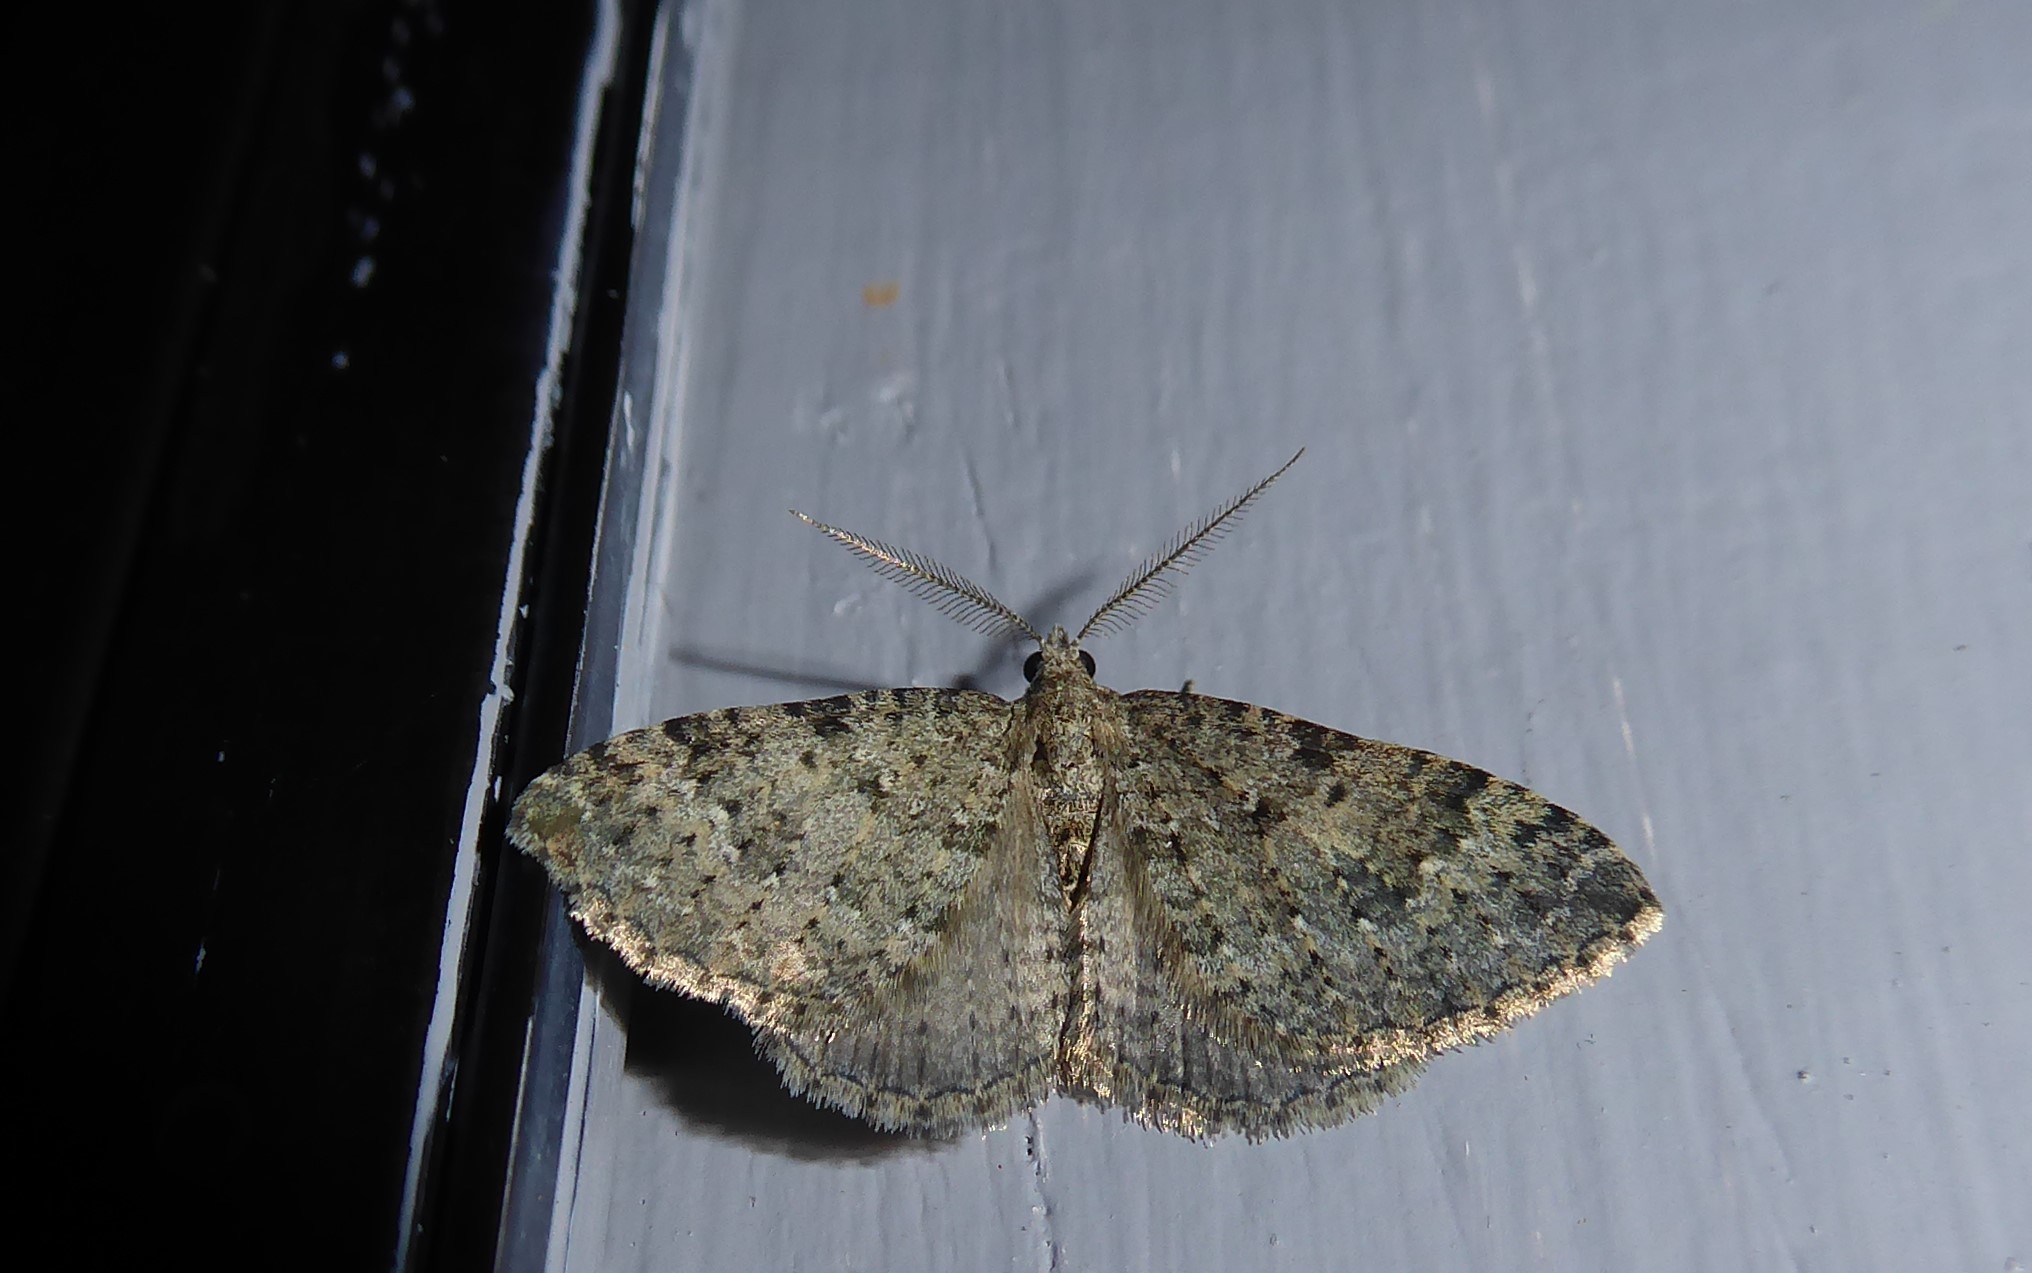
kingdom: Animalia
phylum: Arthropoda
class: Insecta
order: Lepidoptera
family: Geometridae
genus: Helastia
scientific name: Helastia corcularia
